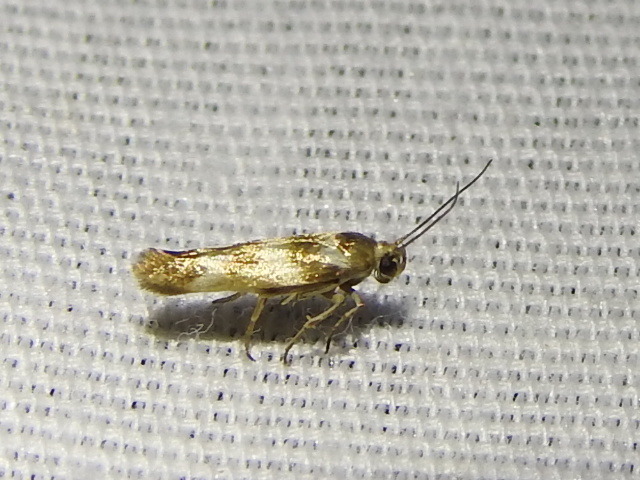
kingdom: Animalia
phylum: Arthropoda
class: Insecta
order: Lepidoptera
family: Scythrididae
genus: Scythris
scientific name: Scythris trivinctella
